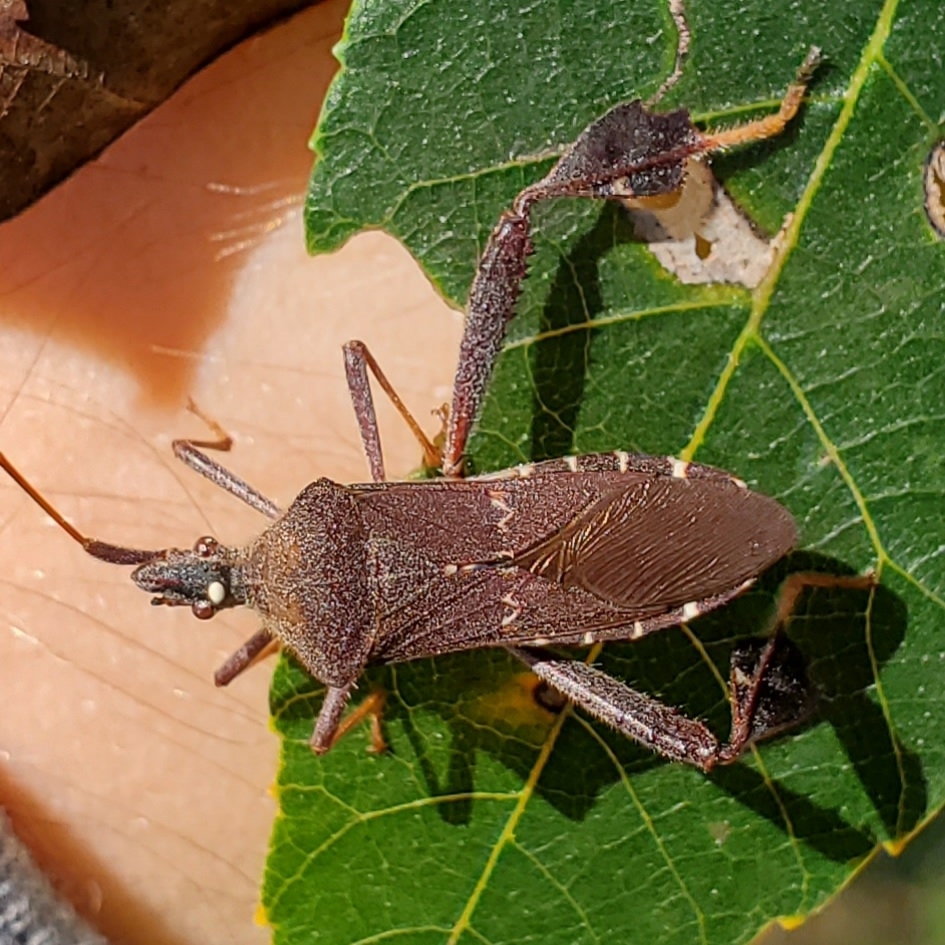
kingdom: Animalia
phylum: Arthropoda
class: Insecta
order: Hemiptera
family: Coreidae
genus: Leptoglossus
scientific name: Leptoglossus oppositus
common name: Northern leaf-footed bug
